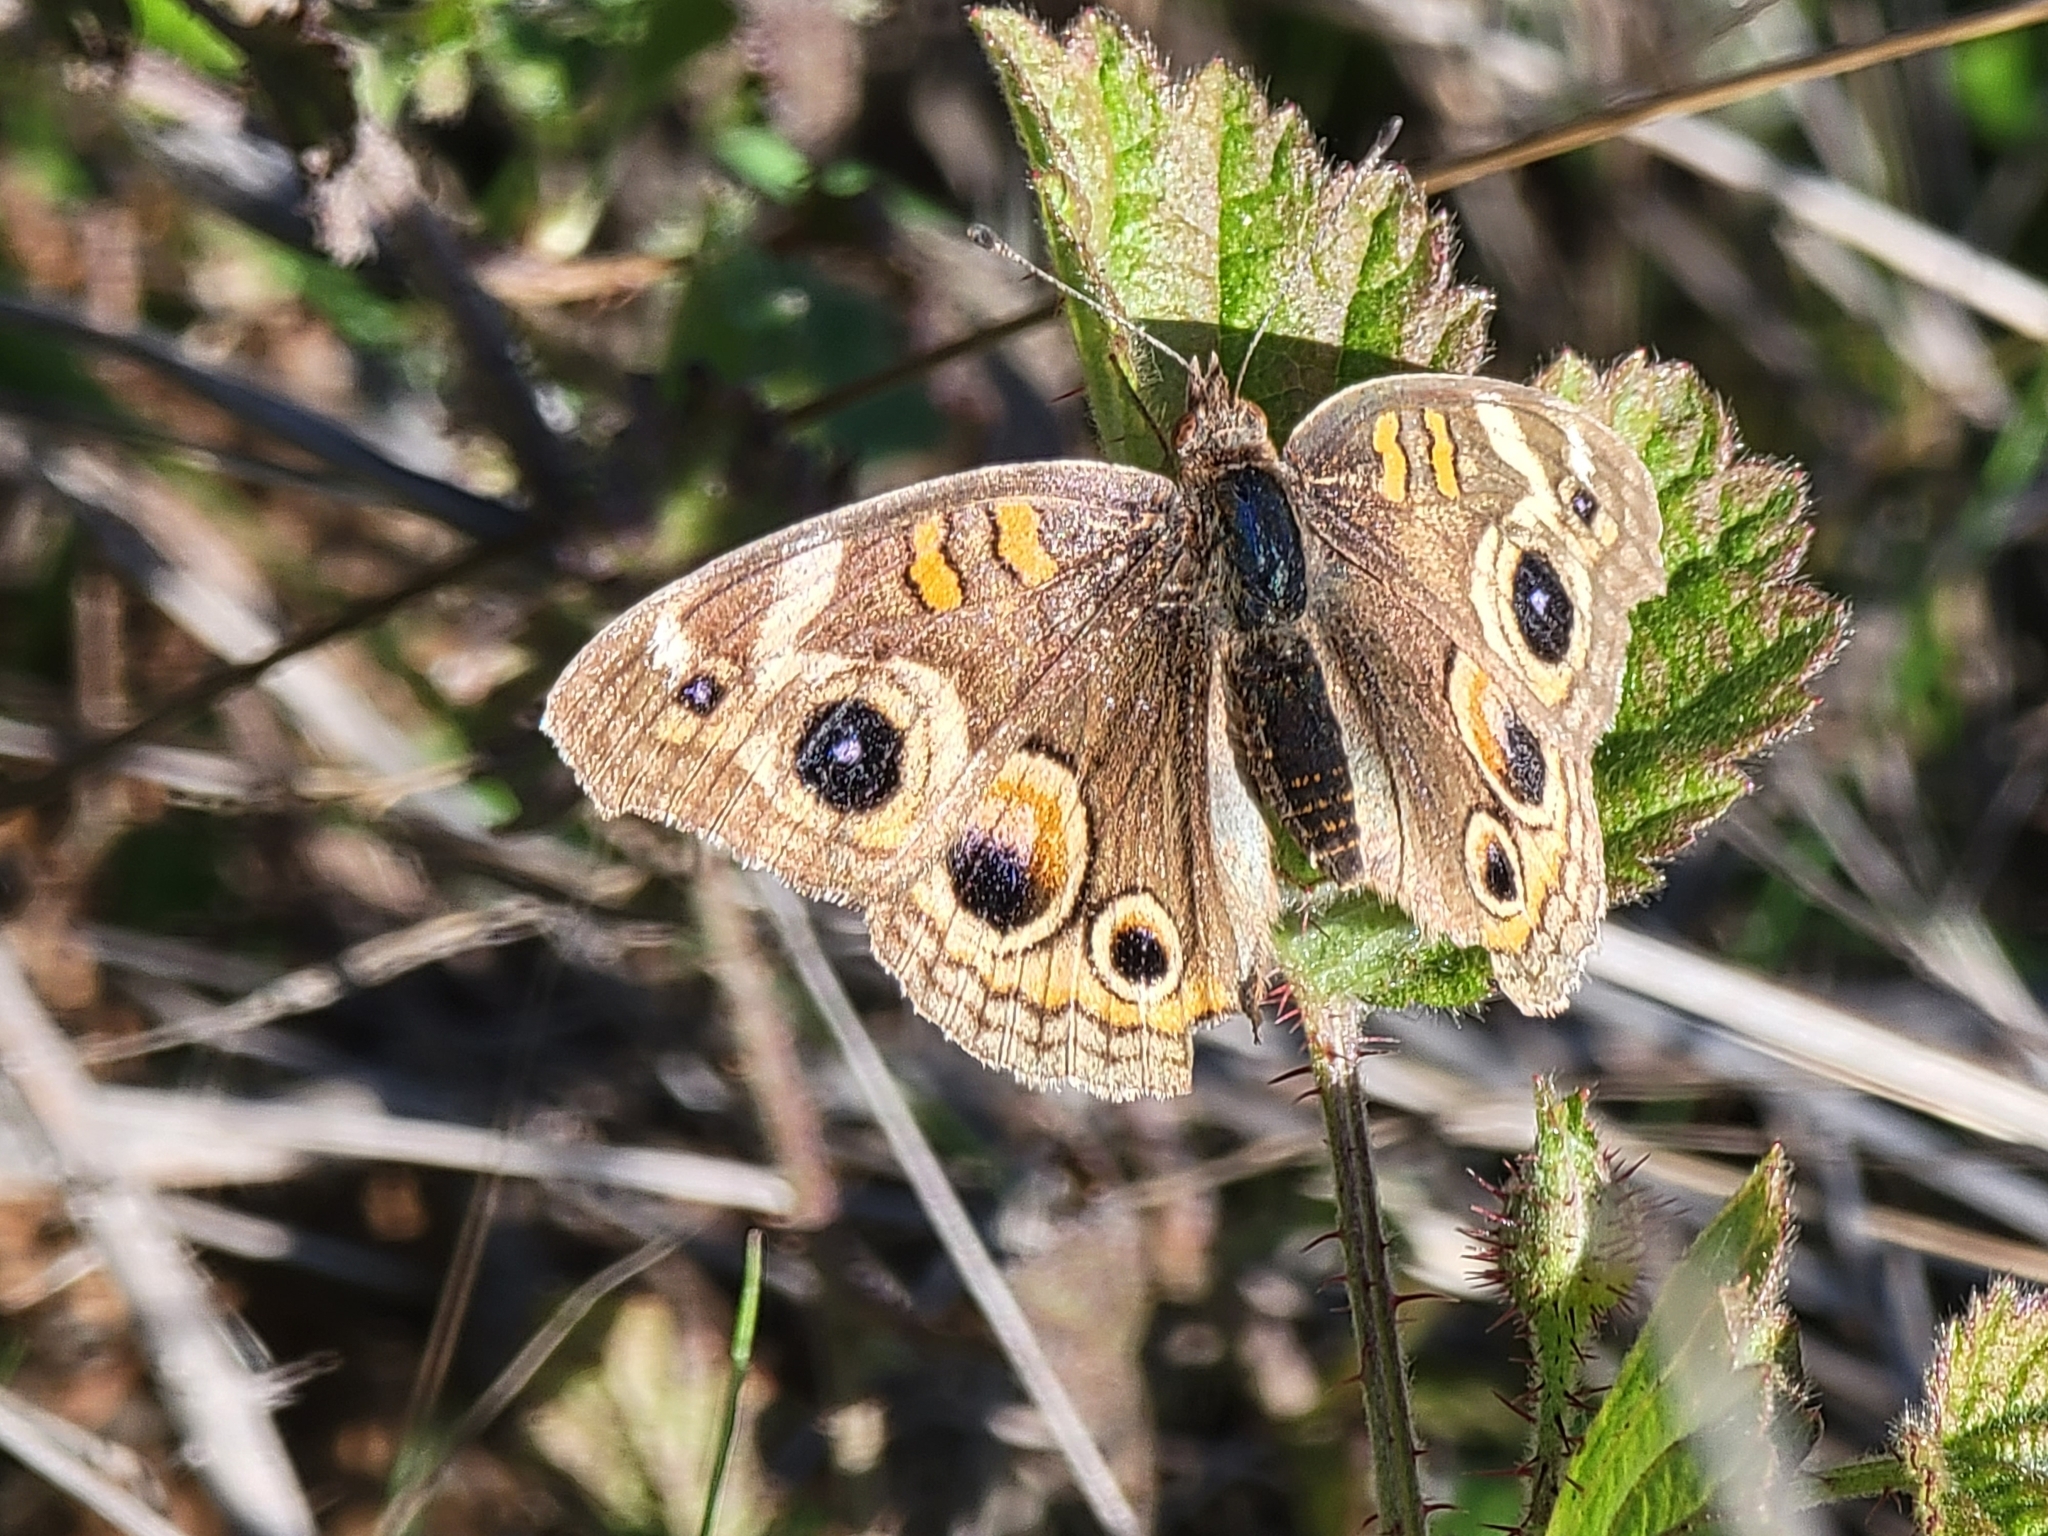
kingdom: Animalia
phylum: Arthropoda
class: Insecta
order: Lepidoptera
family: Nymphalidae
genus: Junonia
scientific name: Junonia grisea
